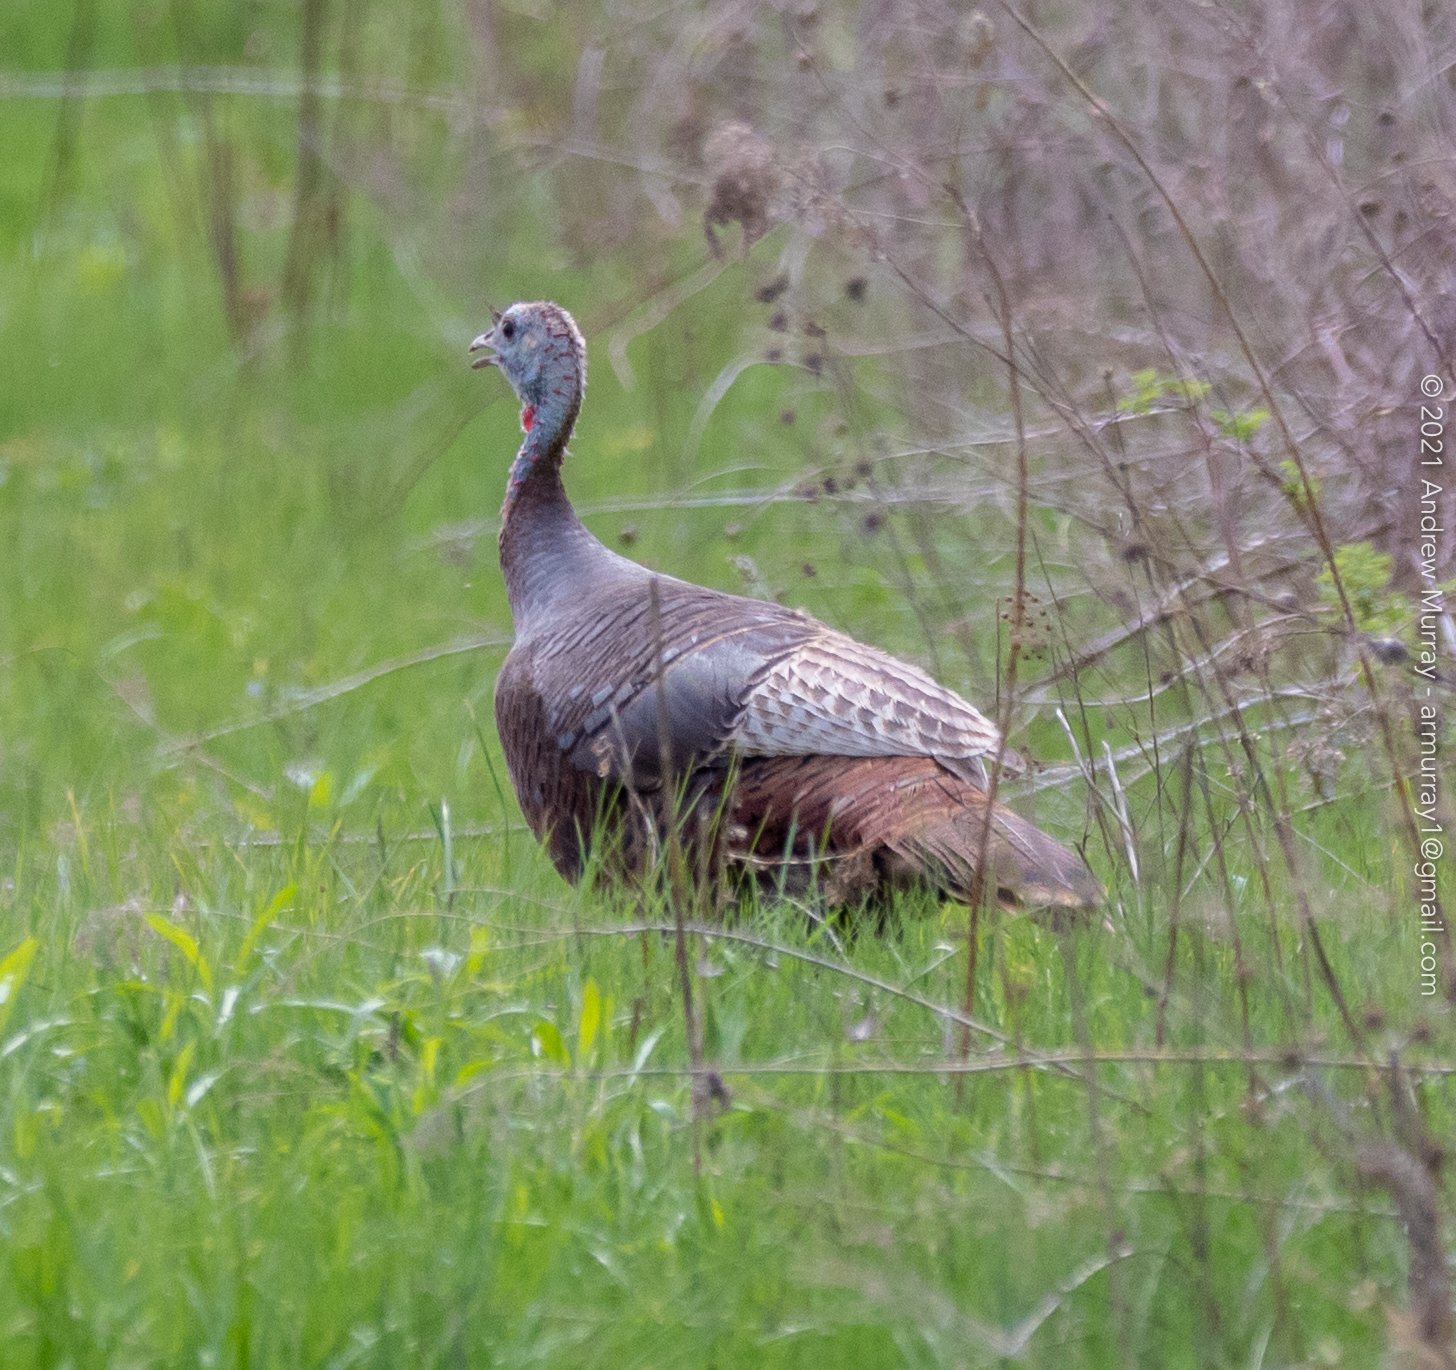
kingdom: Animalia
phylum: Chordata
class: Aves
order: Galliformes
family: Phasianidae
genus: Meleagris
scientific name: Meleagris gallopavo
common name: Wild turkey
